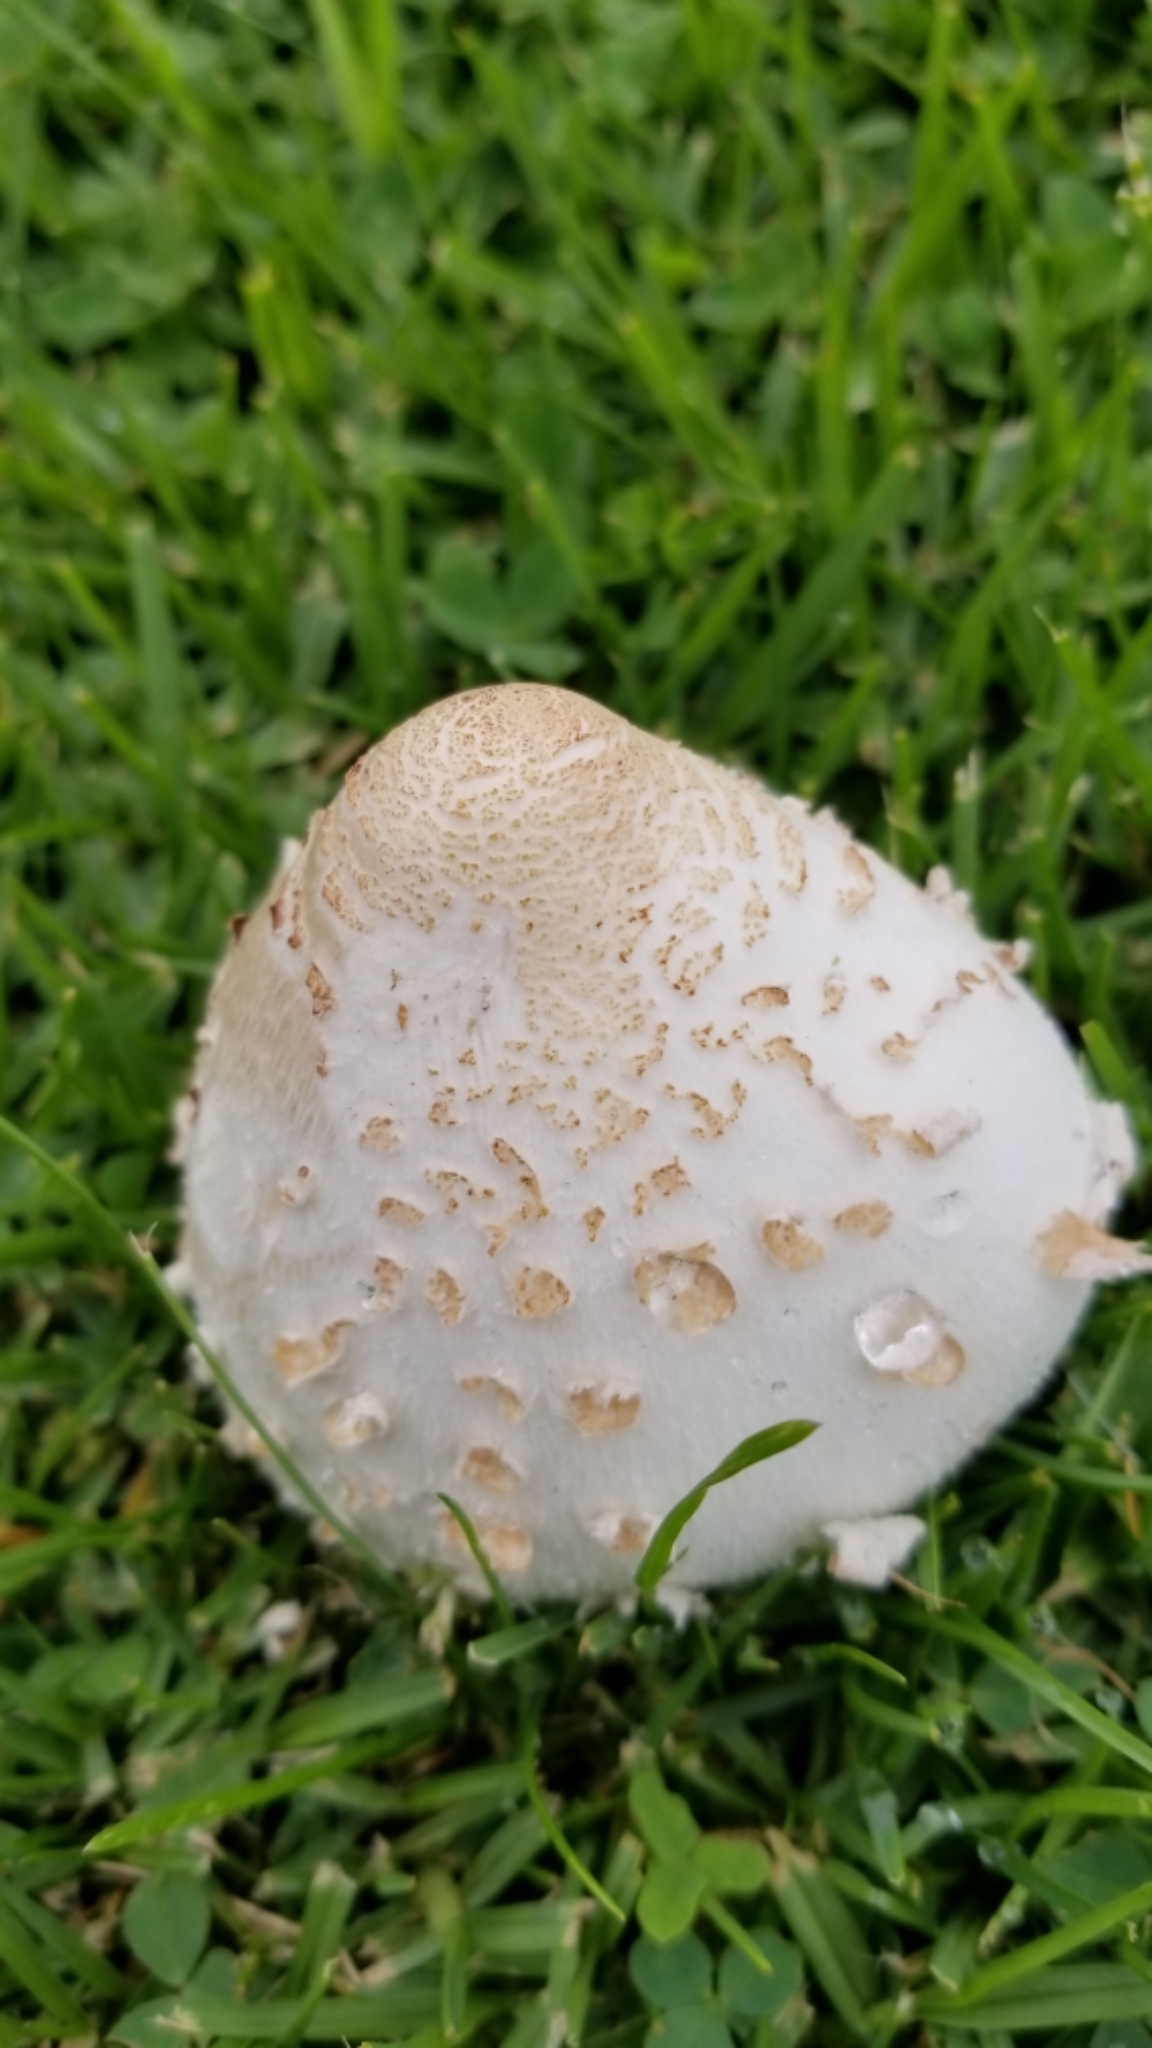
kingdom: Fungi
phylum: Basidiomycota
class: Agaricomycetes
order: Agaricales
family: Agaricaceae
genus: Chlorophyllum
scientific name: Chlorophyllum molybdites
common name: False parasol
